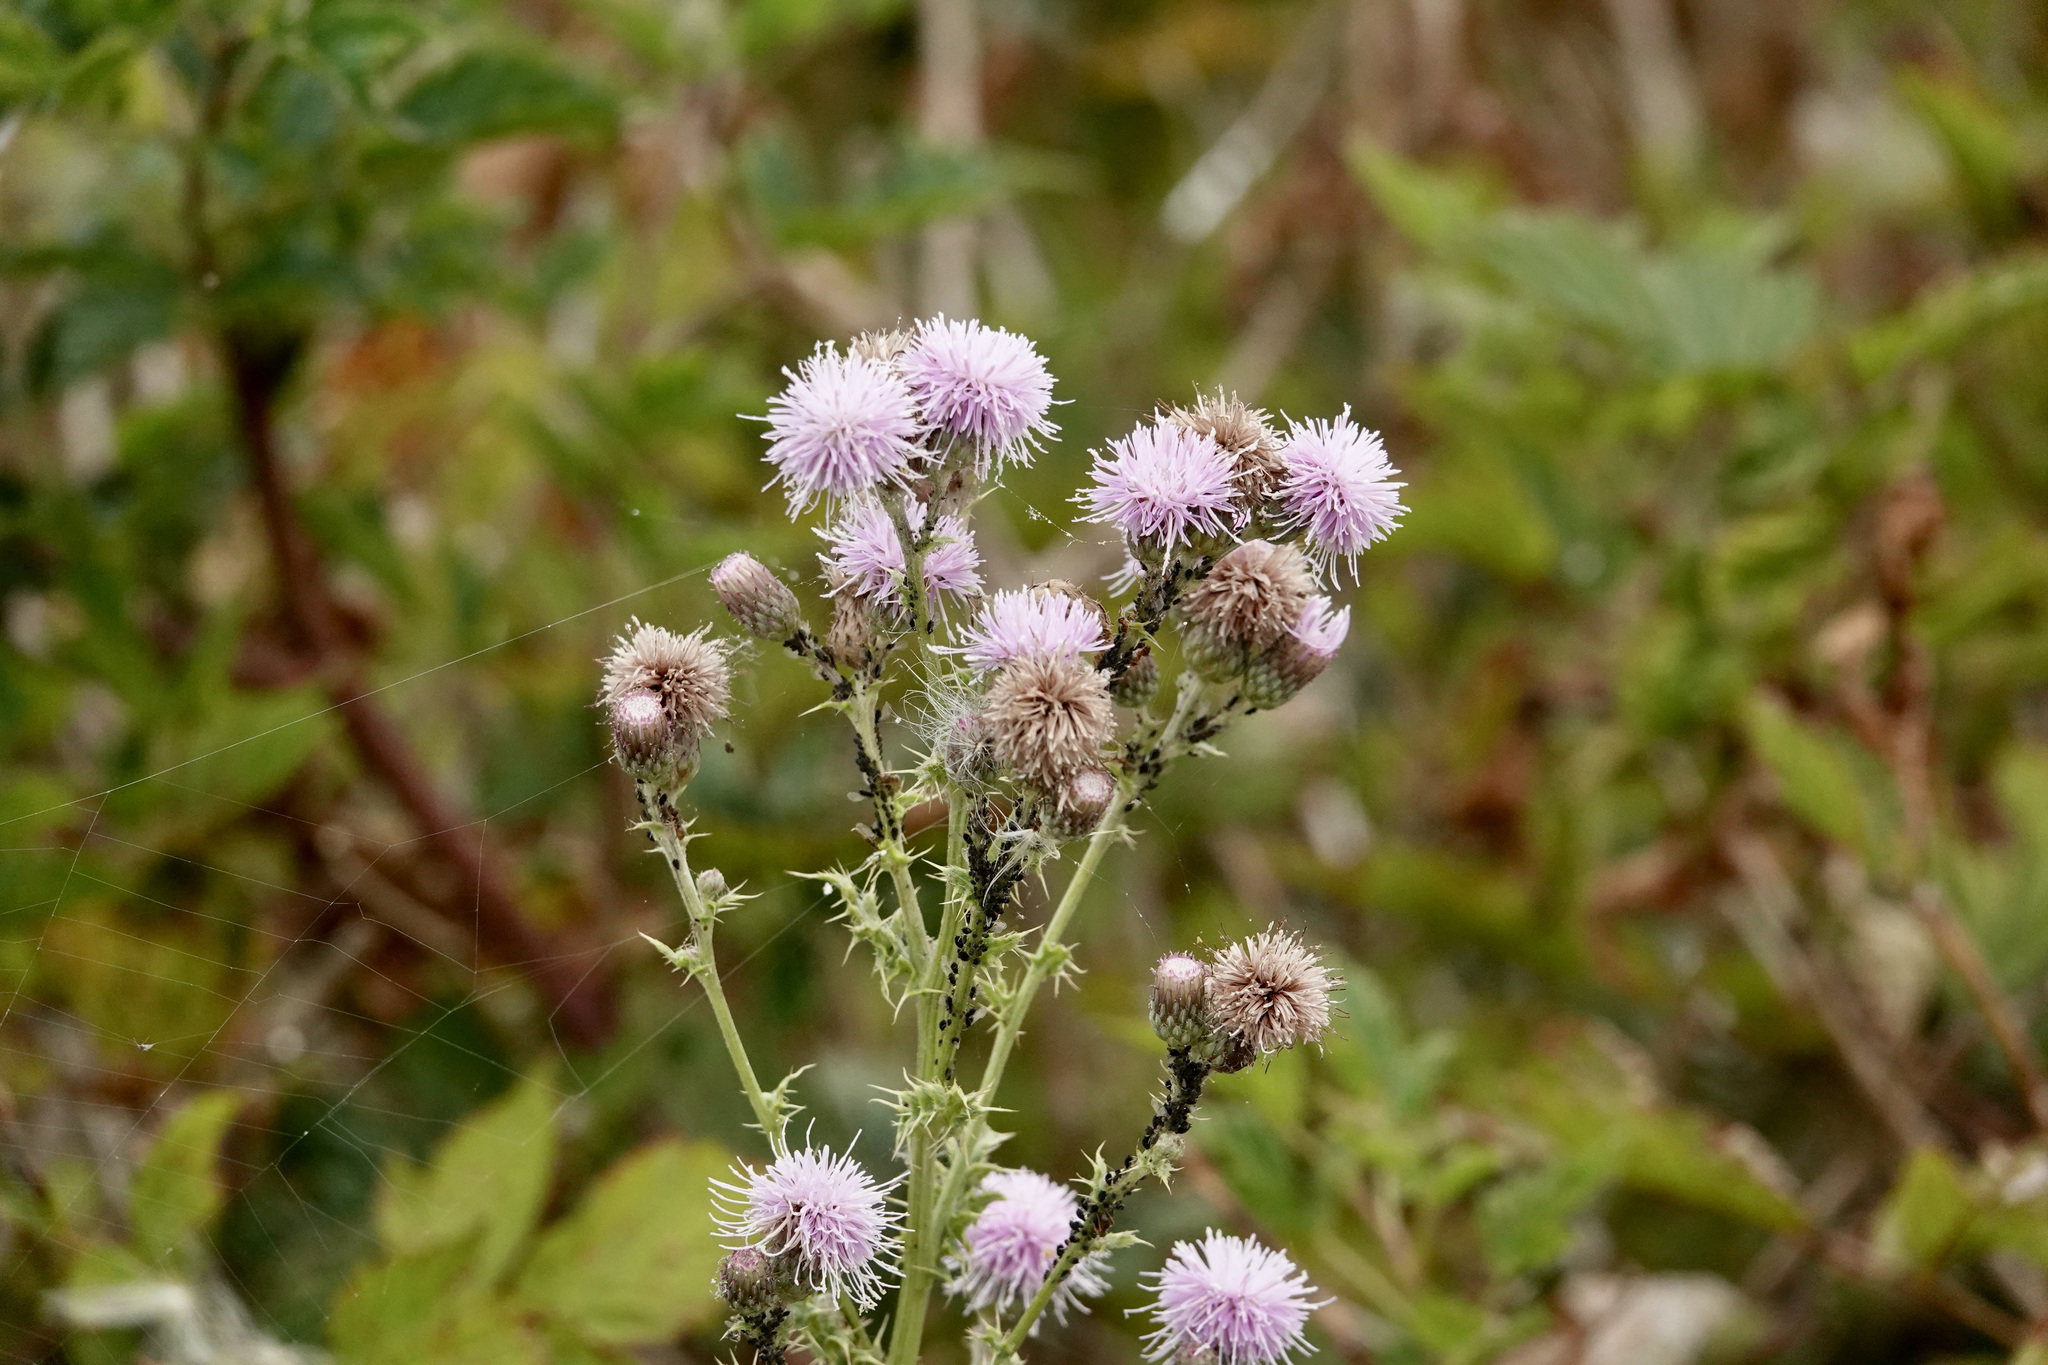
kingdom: Plantae
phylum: Tracheophyta
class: Magnoliopsida
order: Asterales
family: Asteraceae
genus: Cirsium
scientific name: Cirsium arvense
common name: Creeping thistle
